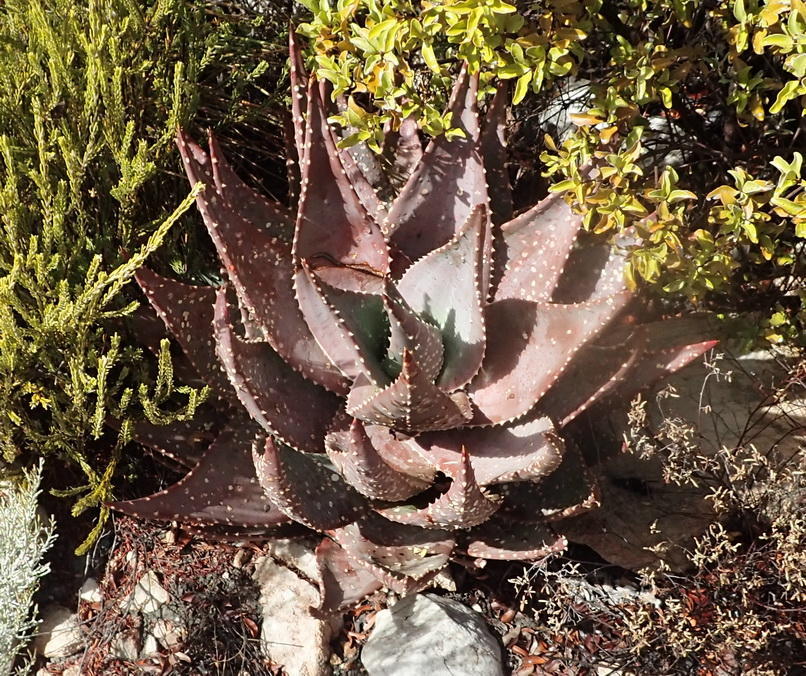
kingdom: Plantae
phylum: Tracheophyta
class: Liliopsida
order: Asparagales
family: Asphodelaceae
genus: Aloe
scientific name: Aloe perfoliata
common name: Mitra aloe
